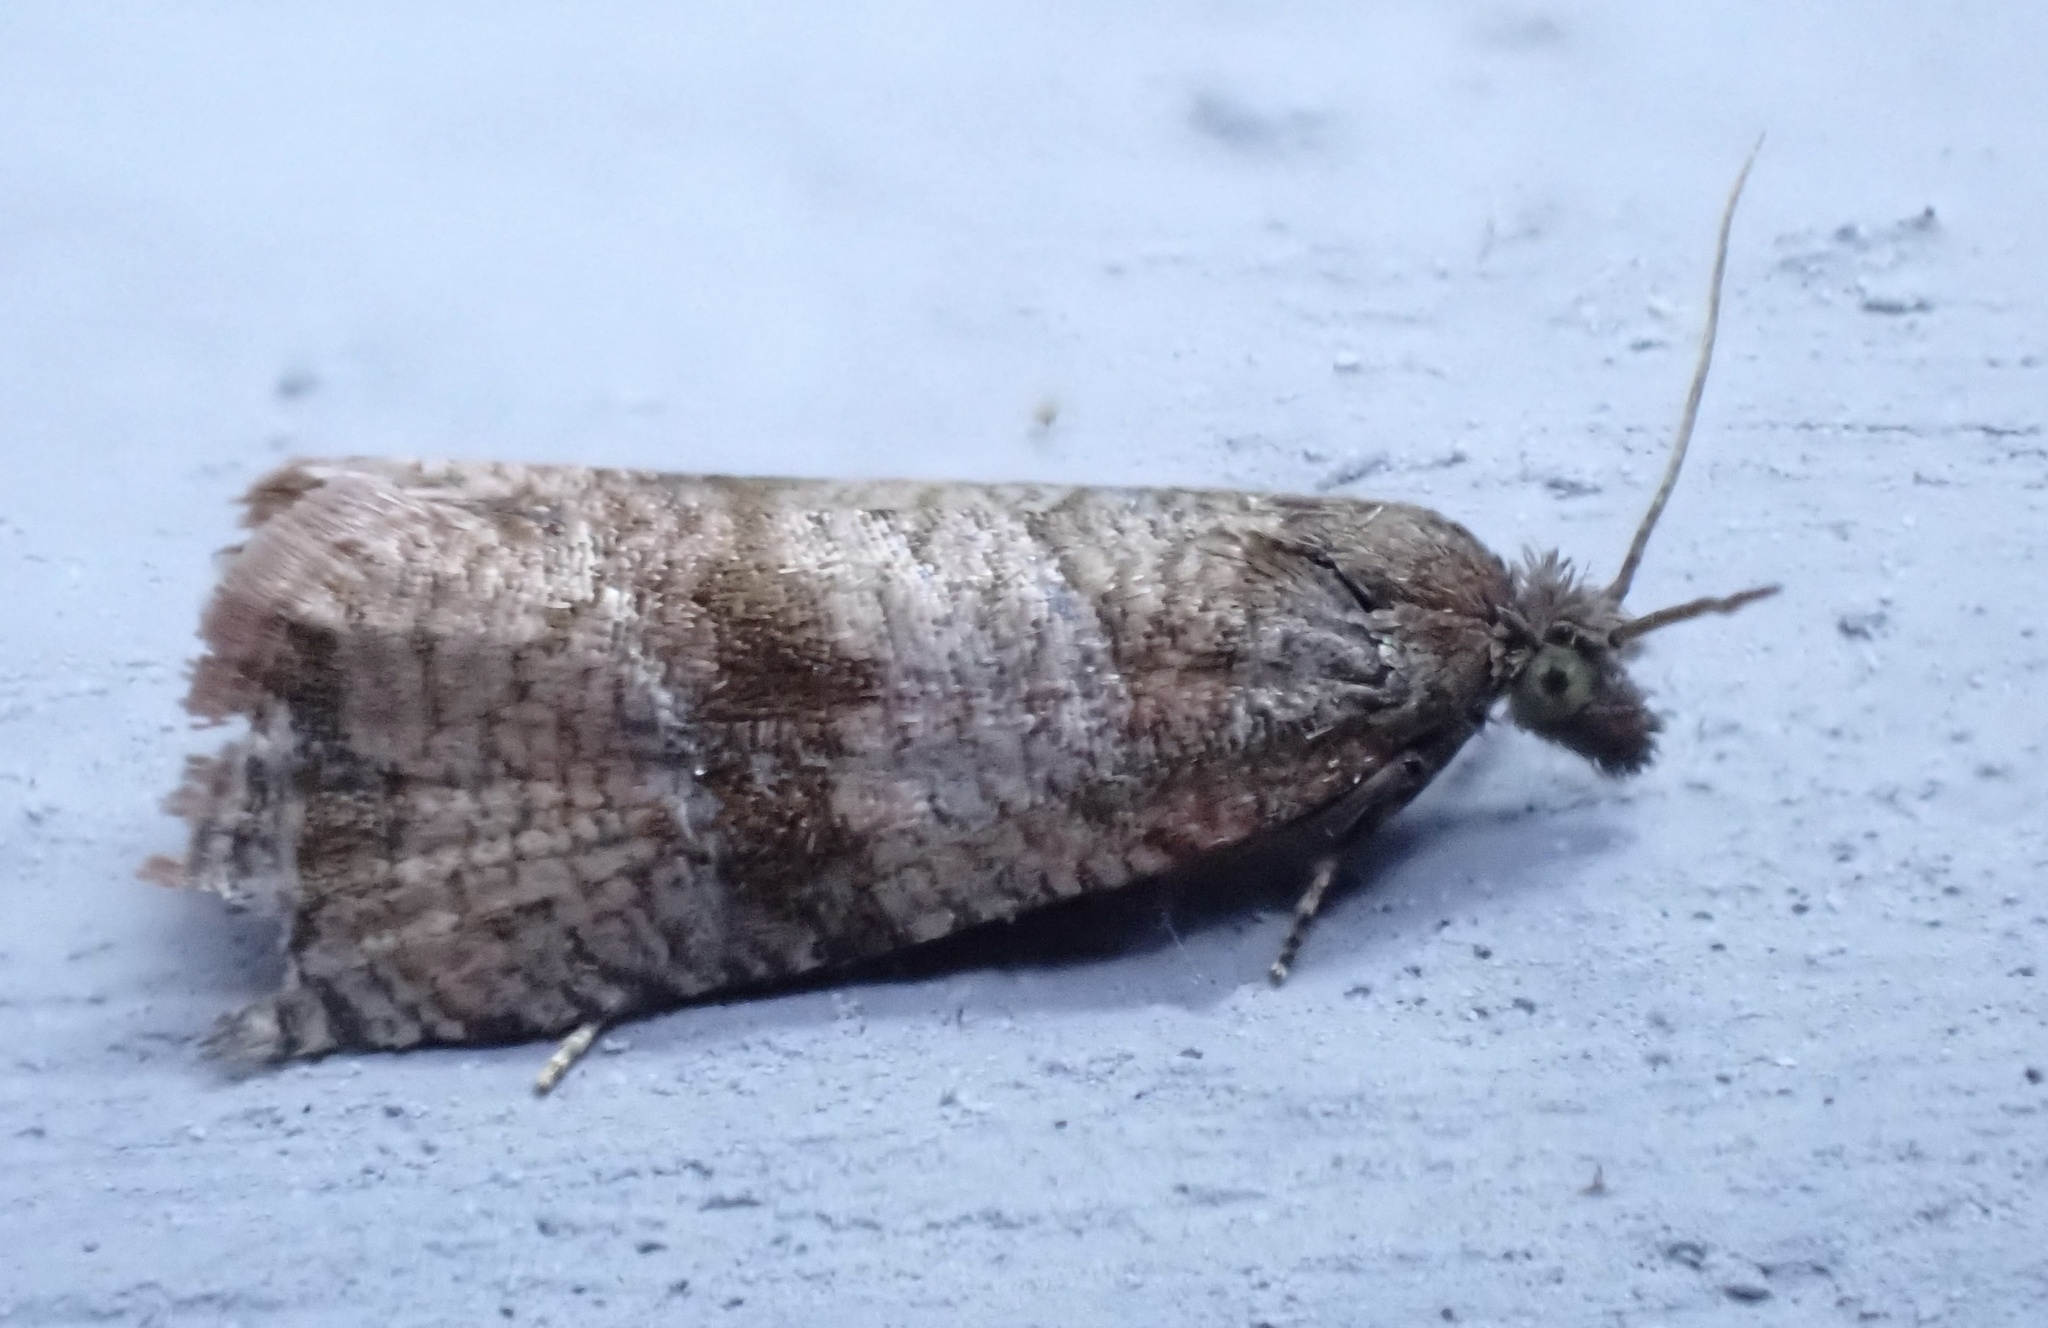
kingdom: Animalia
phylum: Arthropoda
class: Insecta
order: Lepidoptera
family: Tortricidae
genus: Celypha
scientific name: Celypha striana
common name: Barred marble
